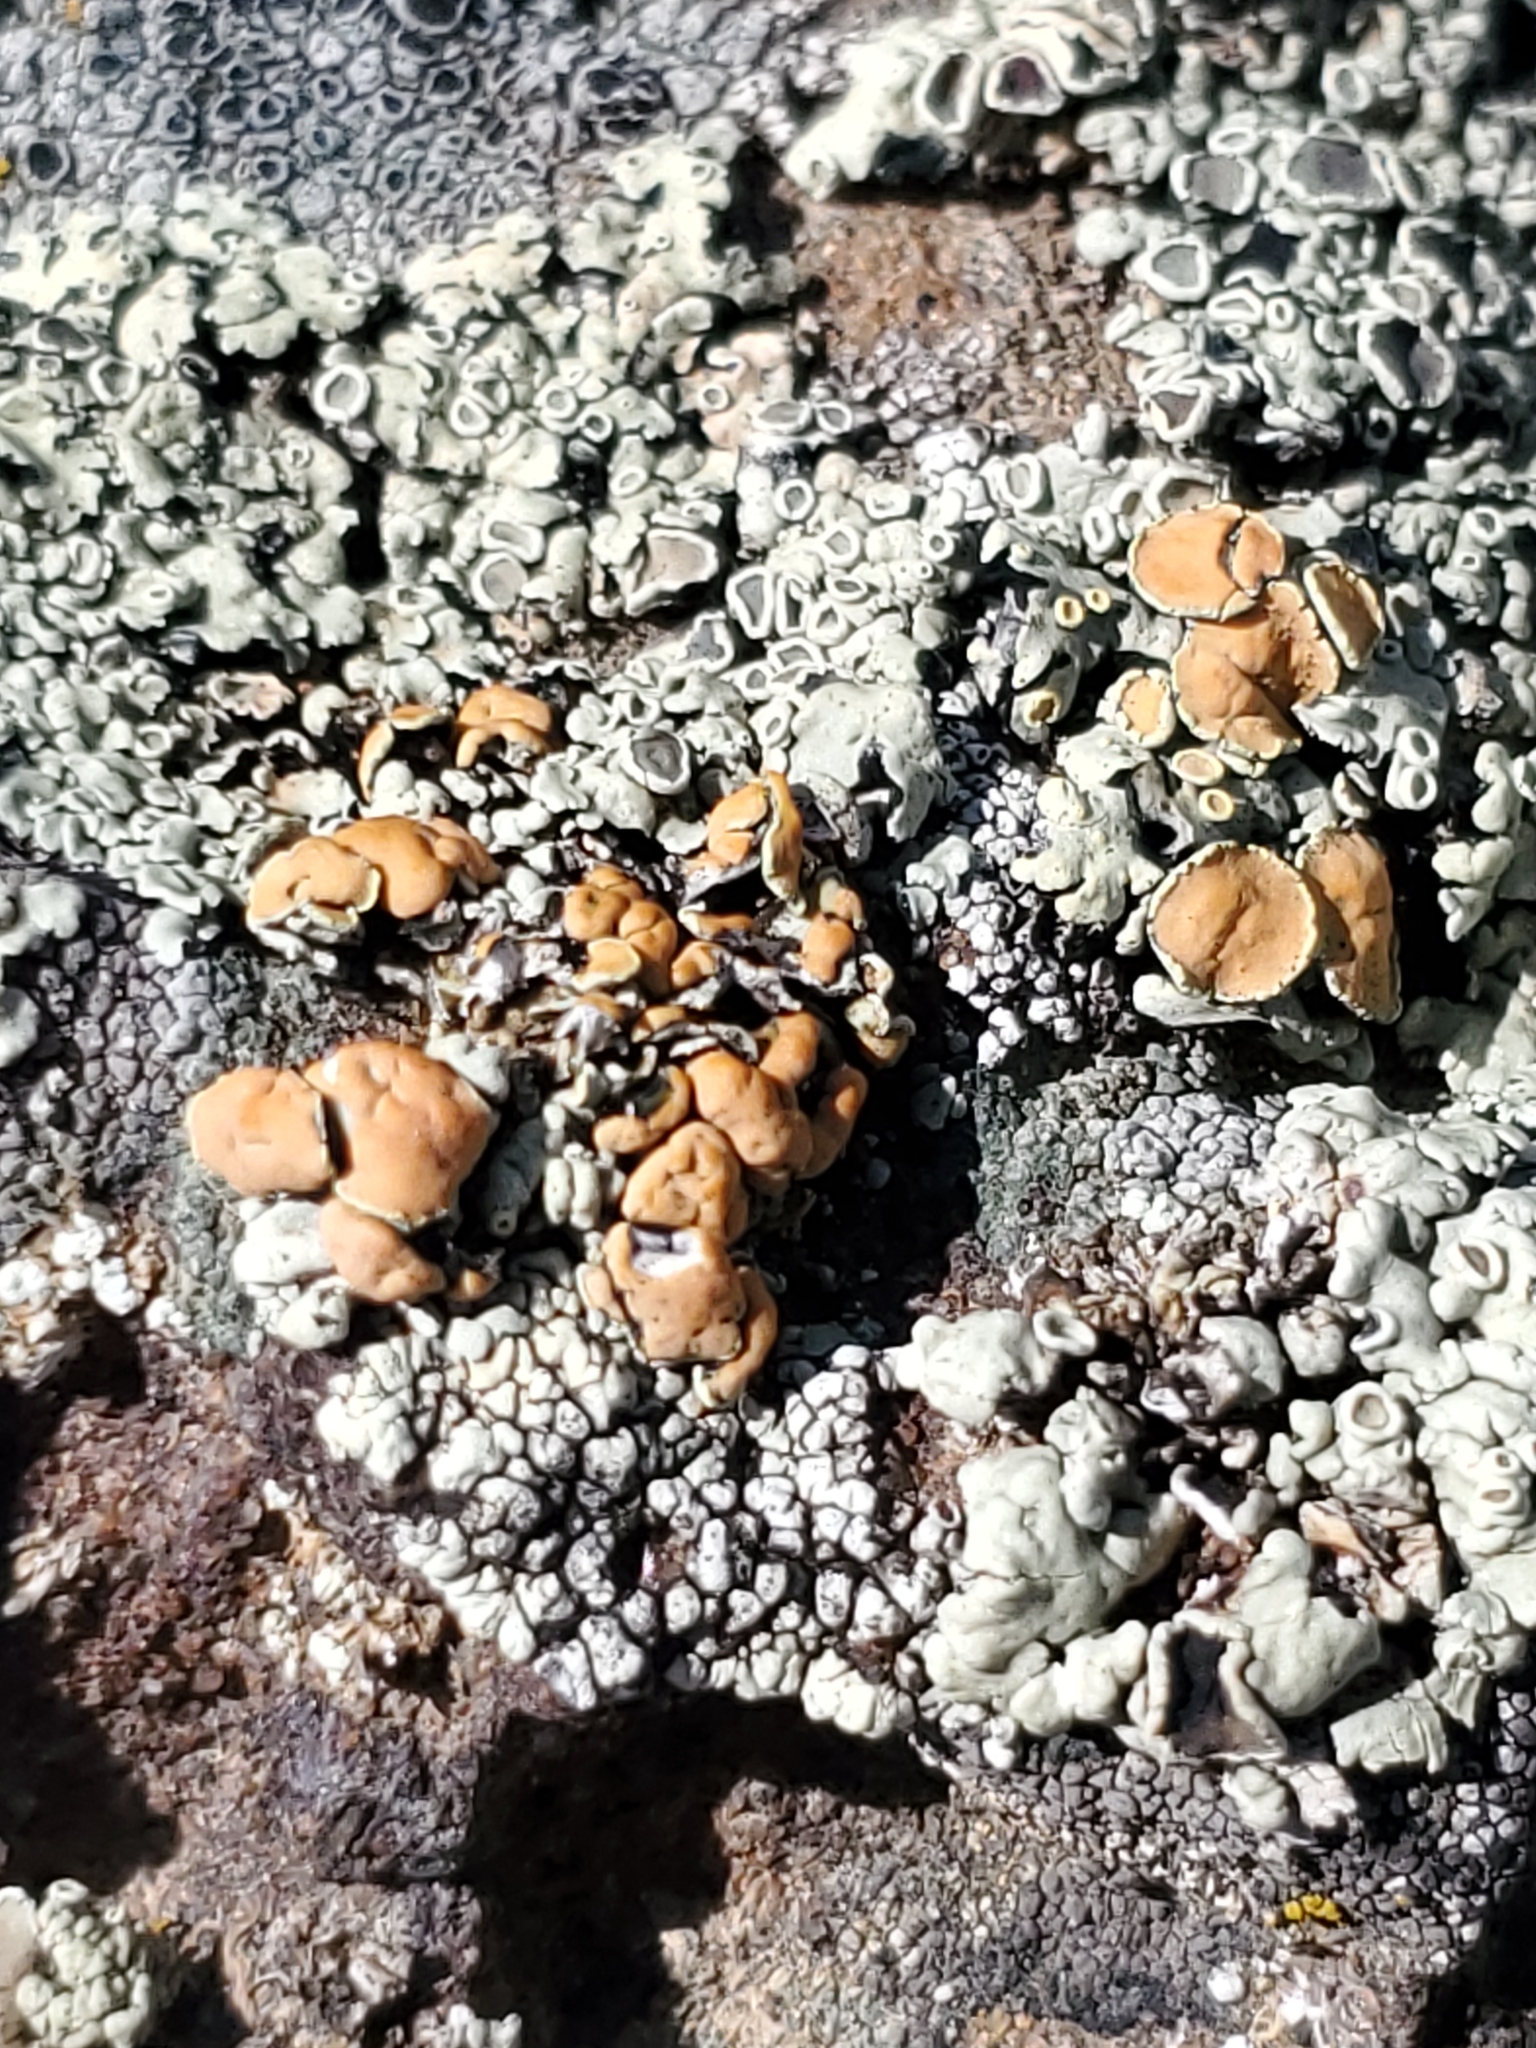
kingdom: Fungi
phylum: Ascomycota
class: Lecanoromycetes
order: Lecanorales
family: Lecanoraceae
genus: Omphalodina
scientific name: Omphalodina chrysoleuca
